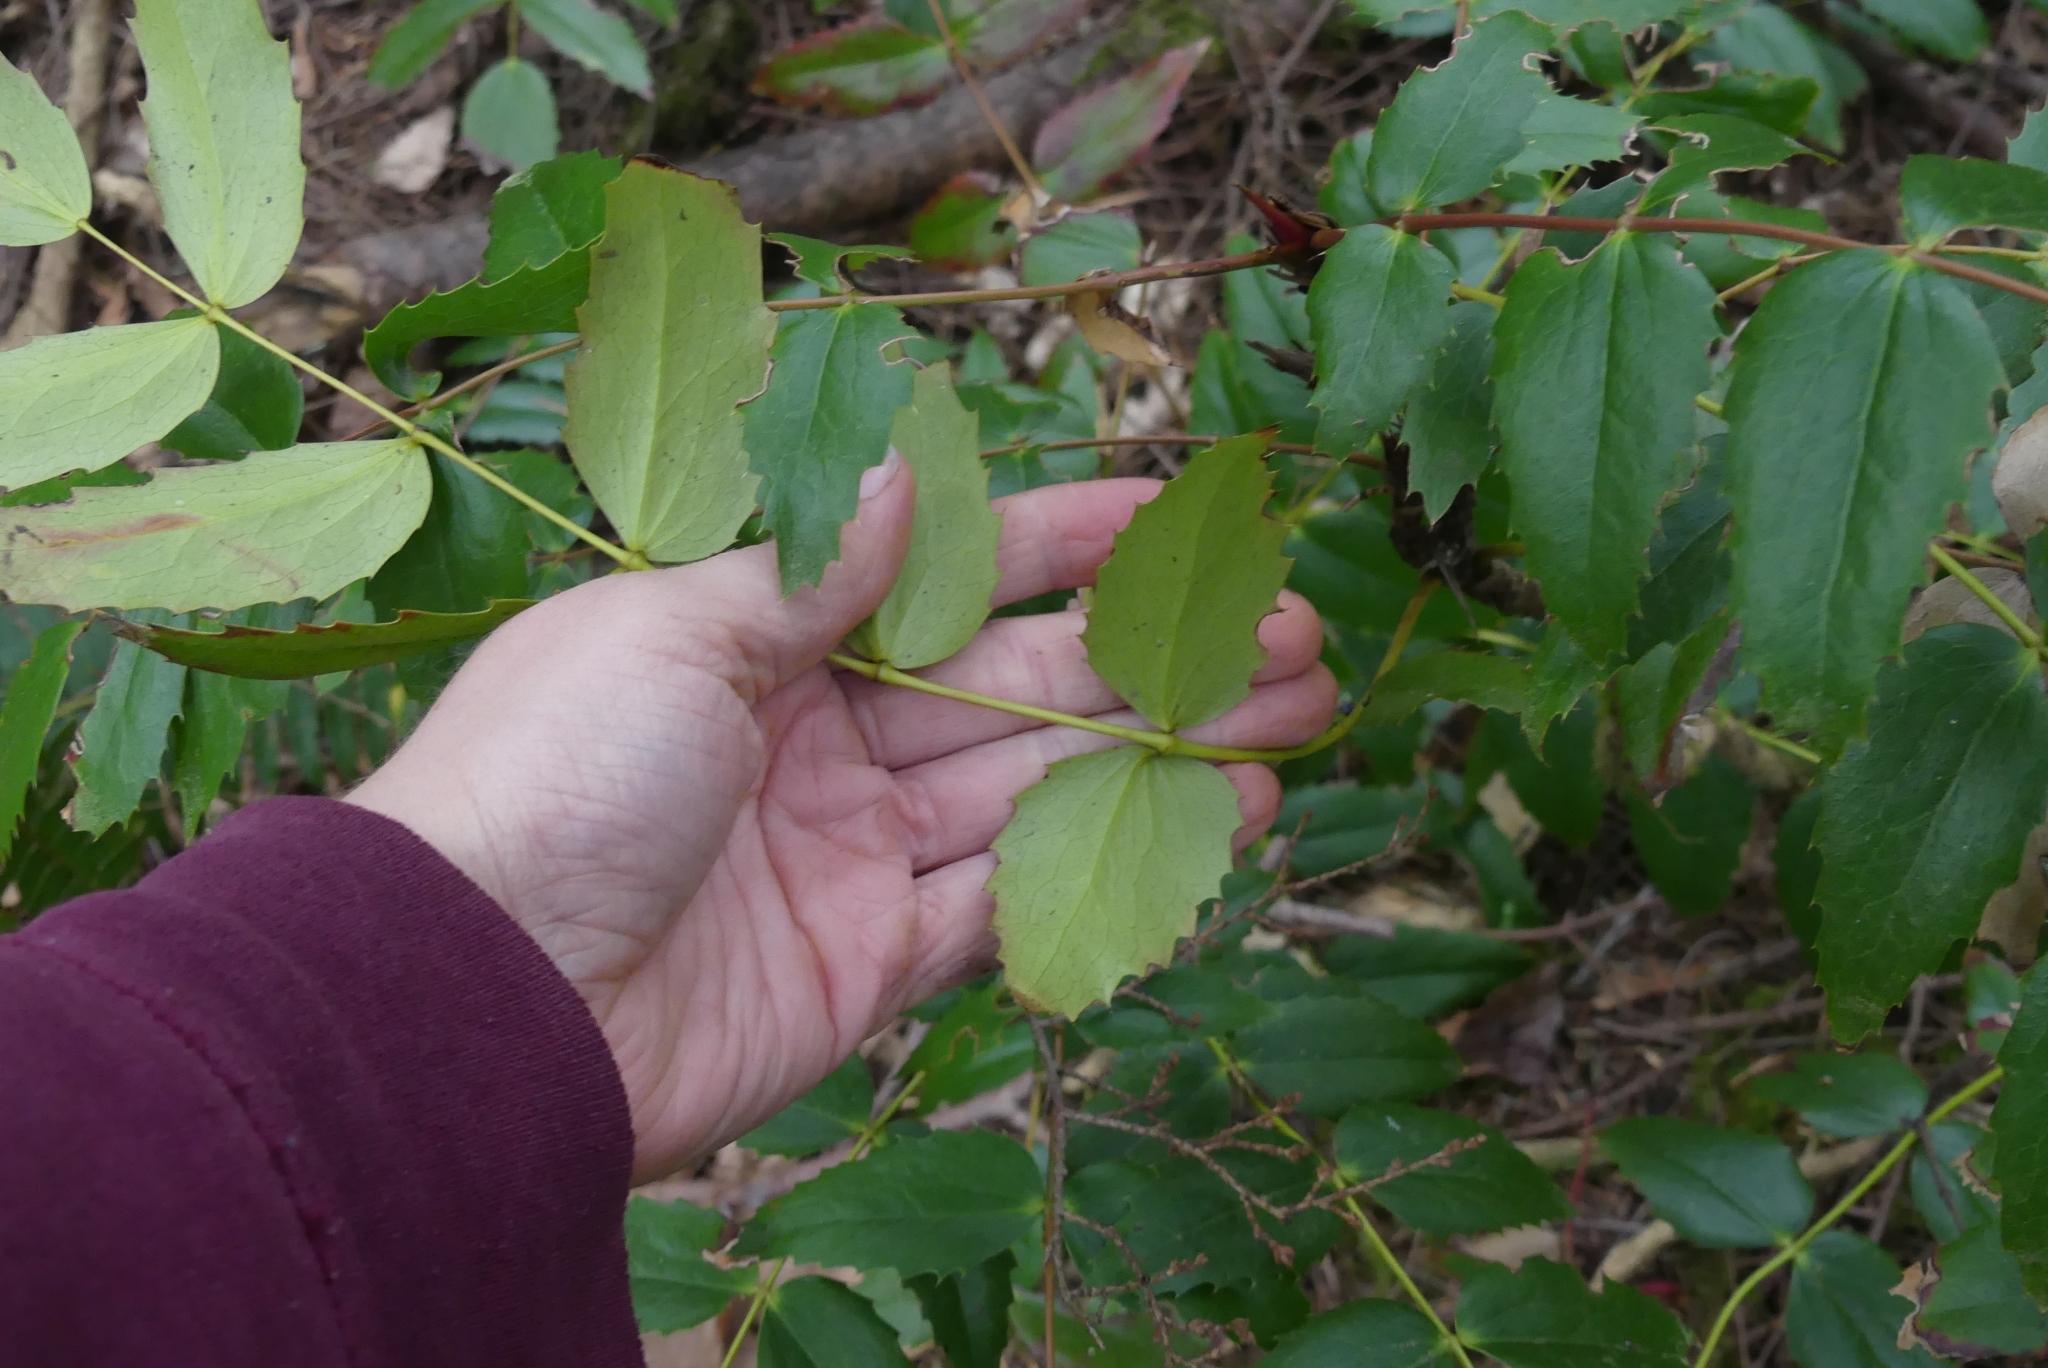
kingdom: Plantae
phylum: Tracheophyta
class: Magnoliopsida
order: Ranunculales
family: Berberidaceae
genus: Mahonia
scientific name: Mahonia nervosa
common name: Cascade oregon-grape
